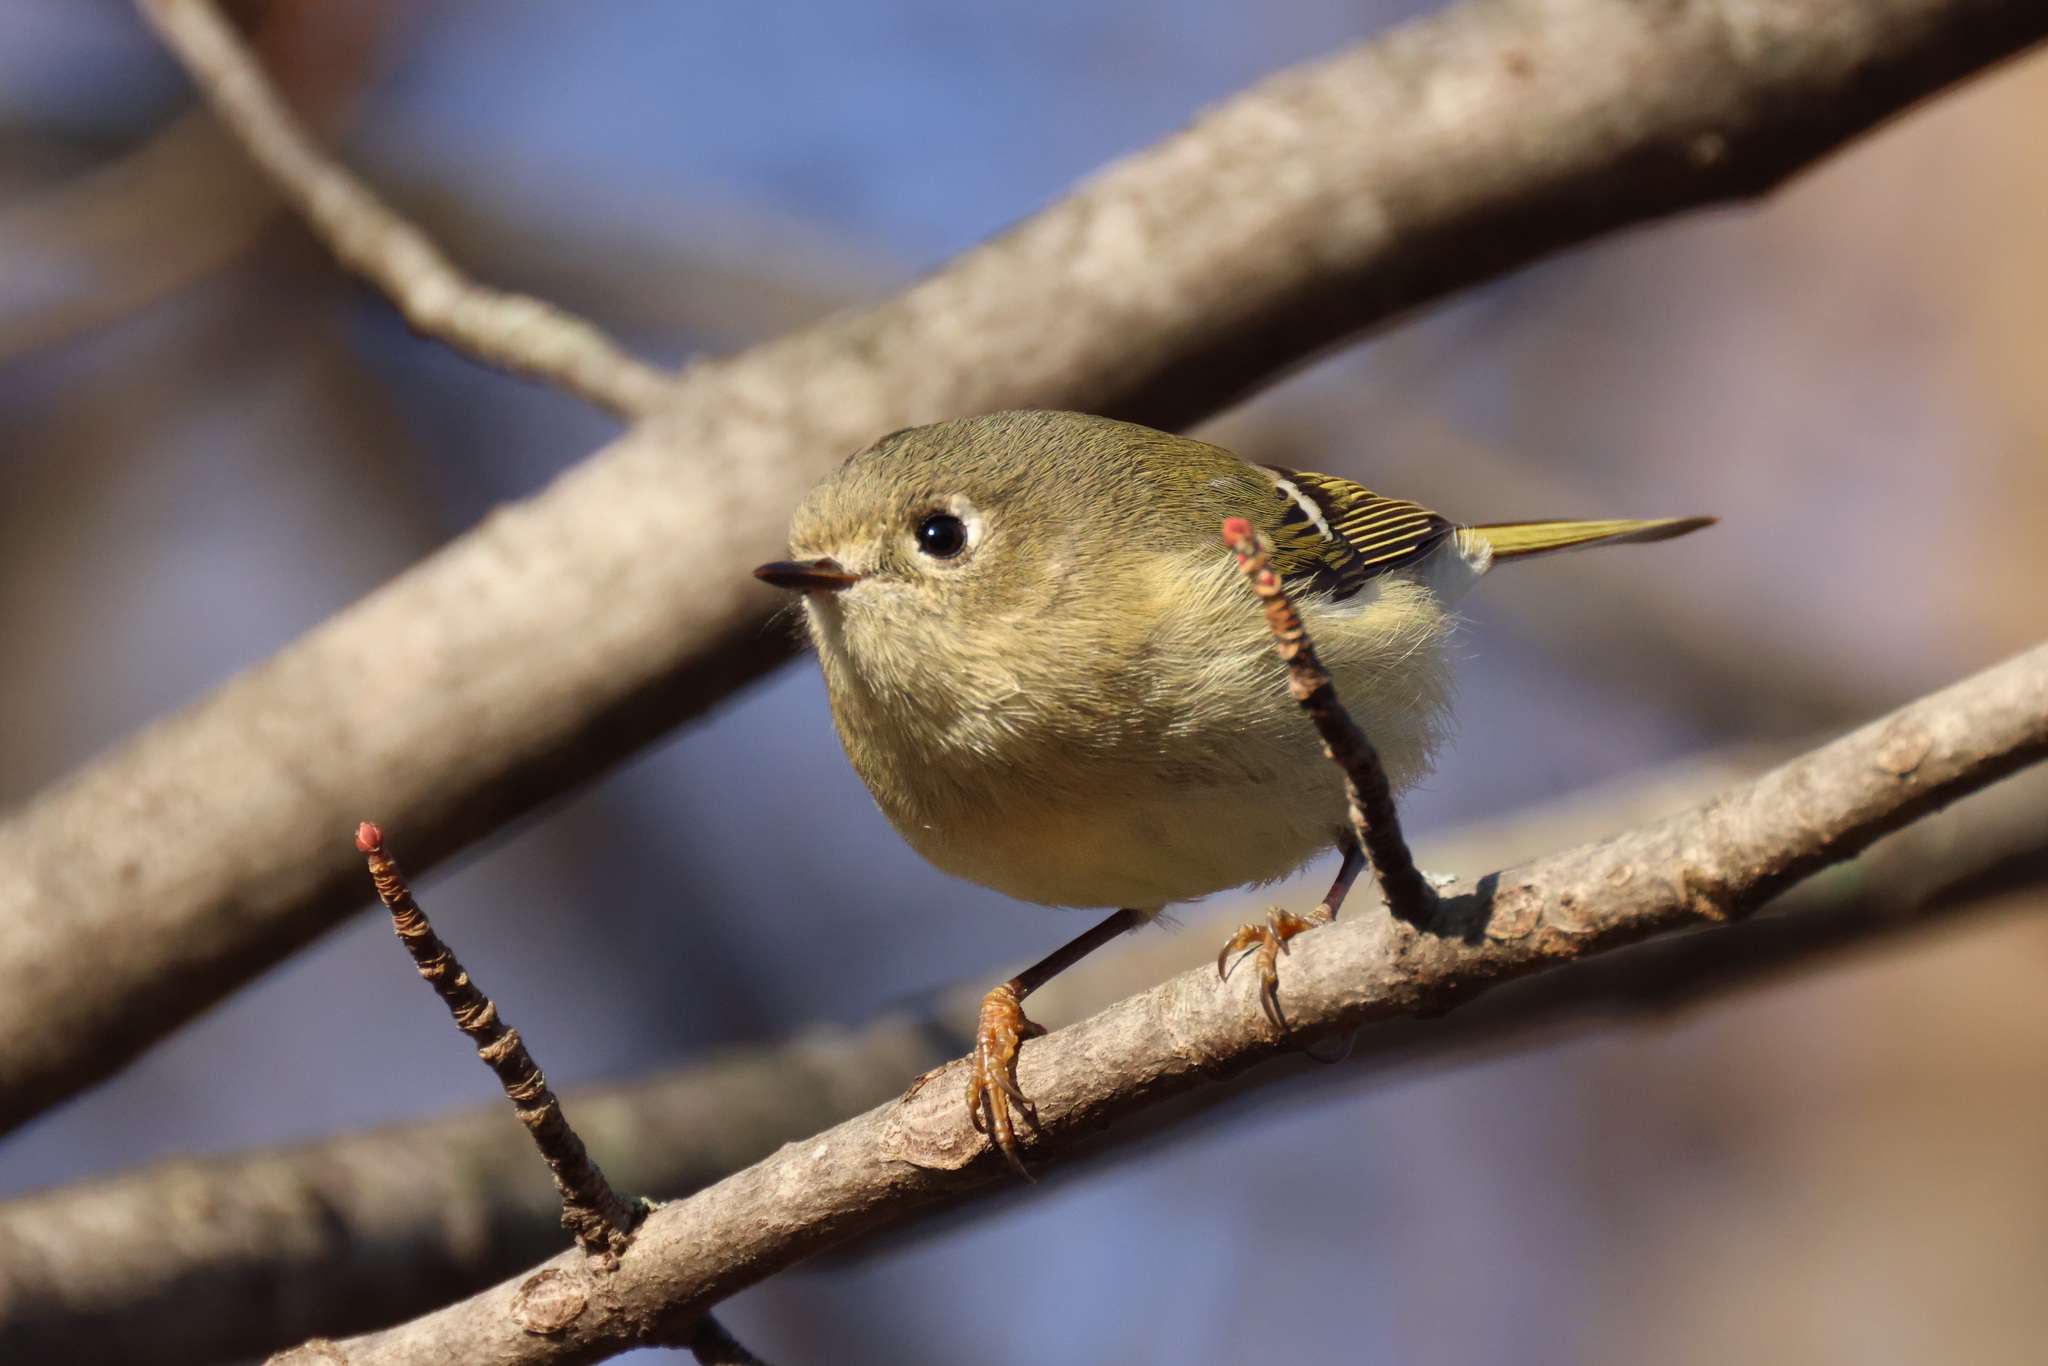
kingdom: Animalia
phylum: Chordata
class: Aves
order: Passeriformes
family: Regulidae
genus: Regulus
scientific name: Regulus calendula
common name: Ruby-crowned kinglet
